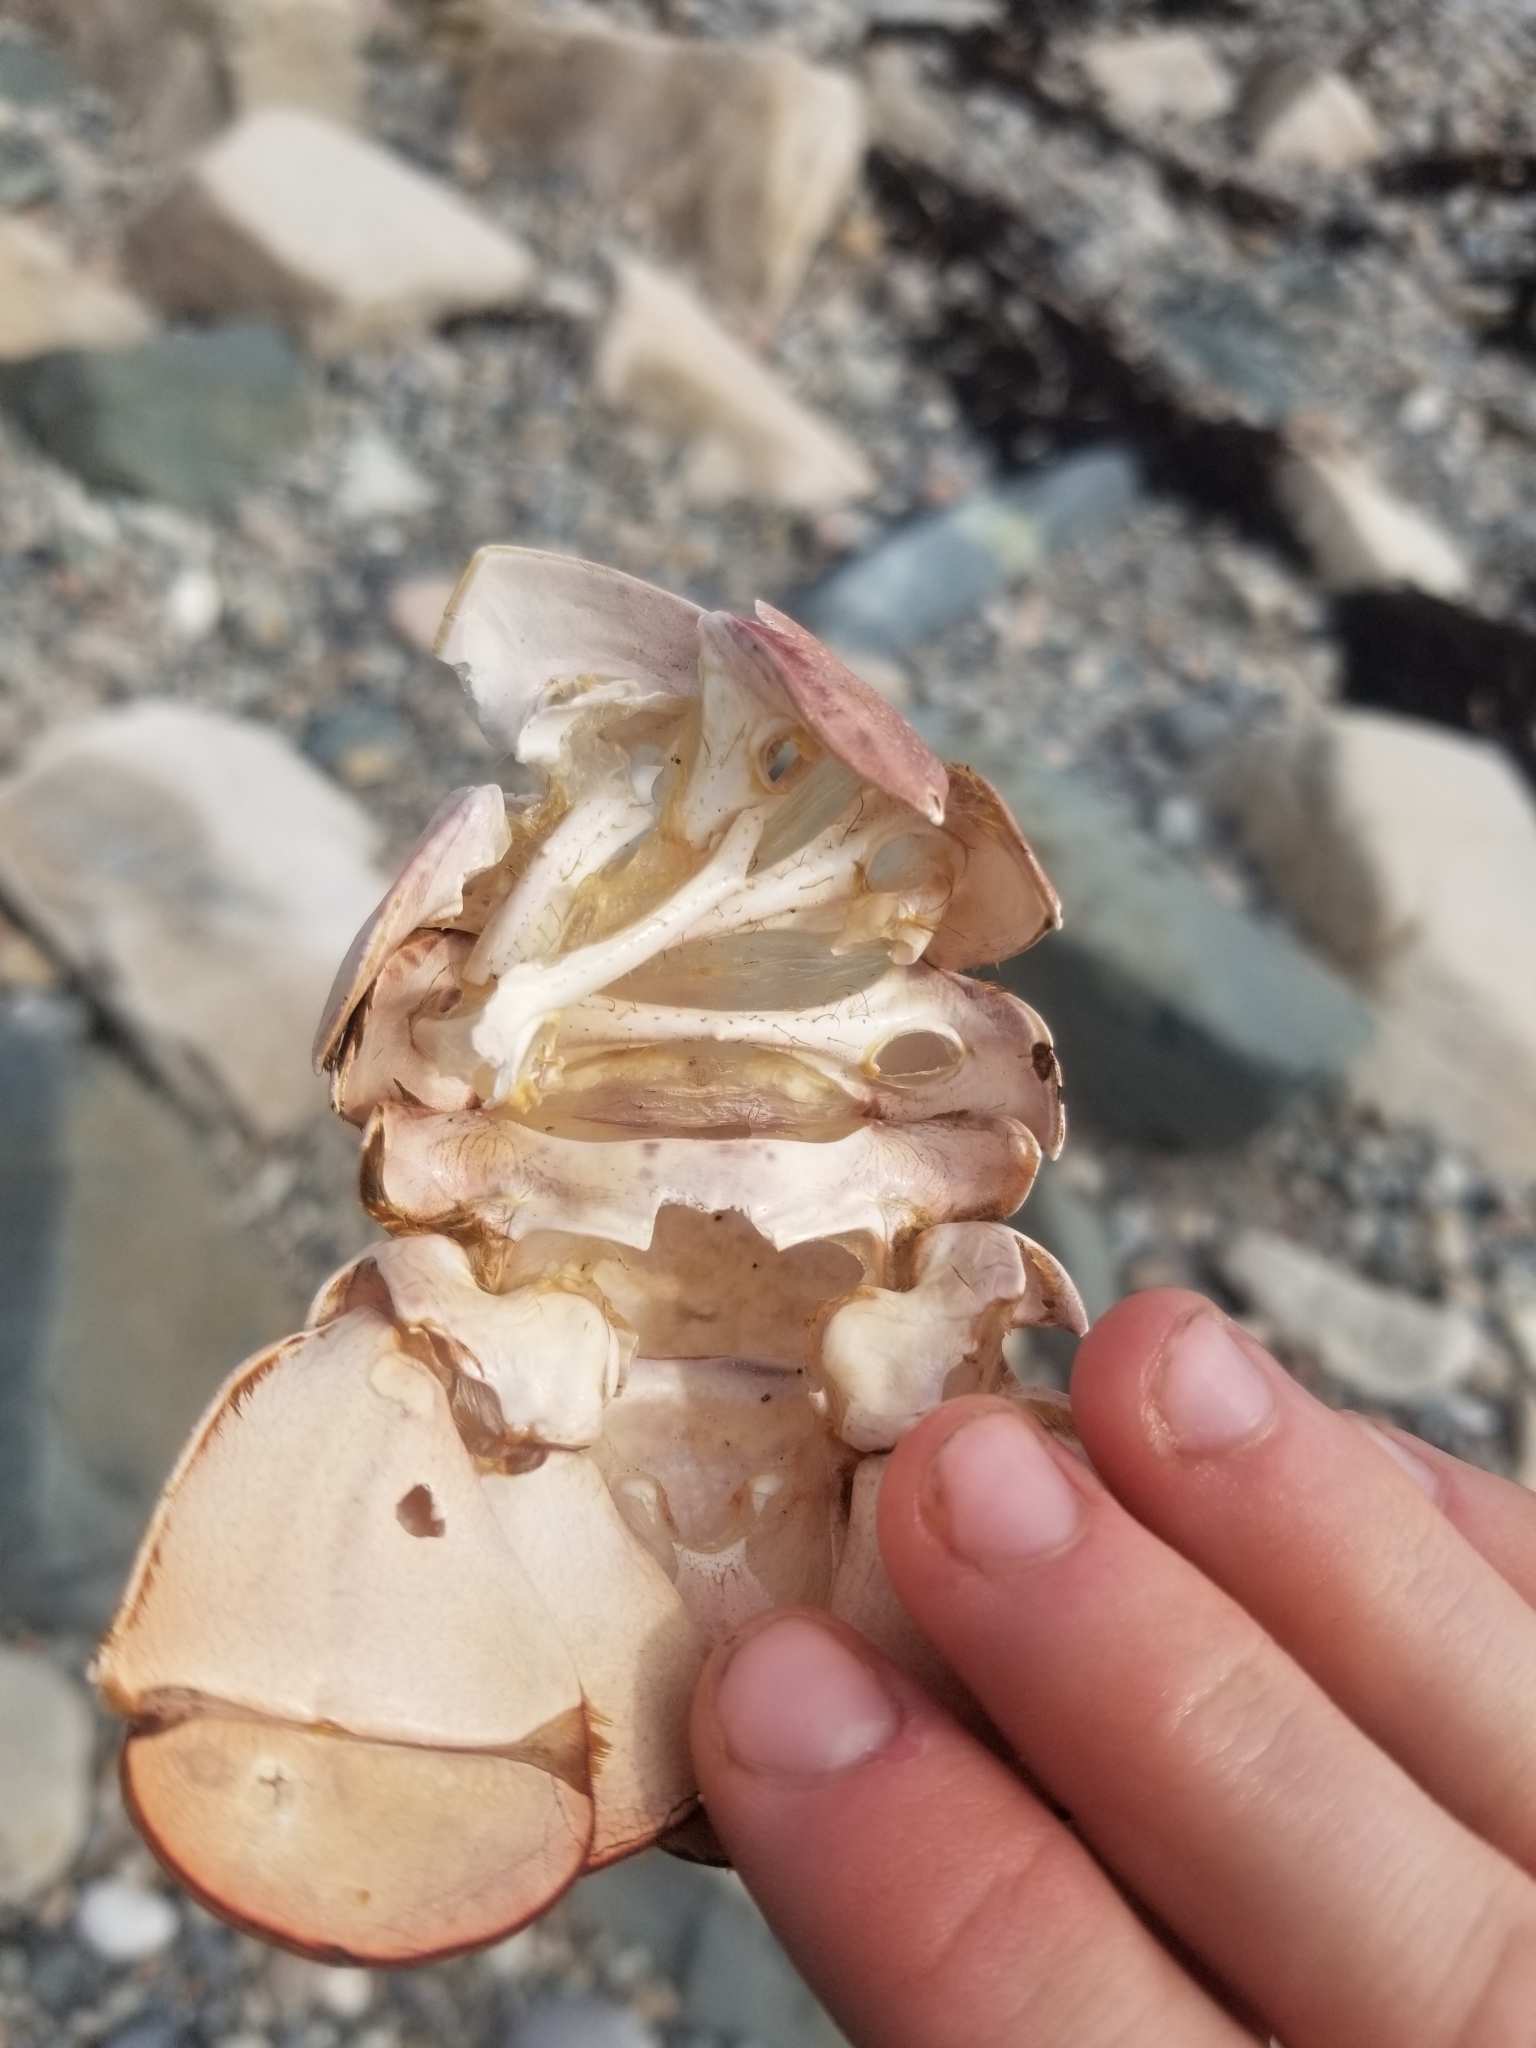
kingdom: Animalia
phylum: Arthropoda
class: Malacostraca
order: Decapoda
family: Nephropidae
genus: Homarus
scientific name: Homarus americanus
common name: American lobster
